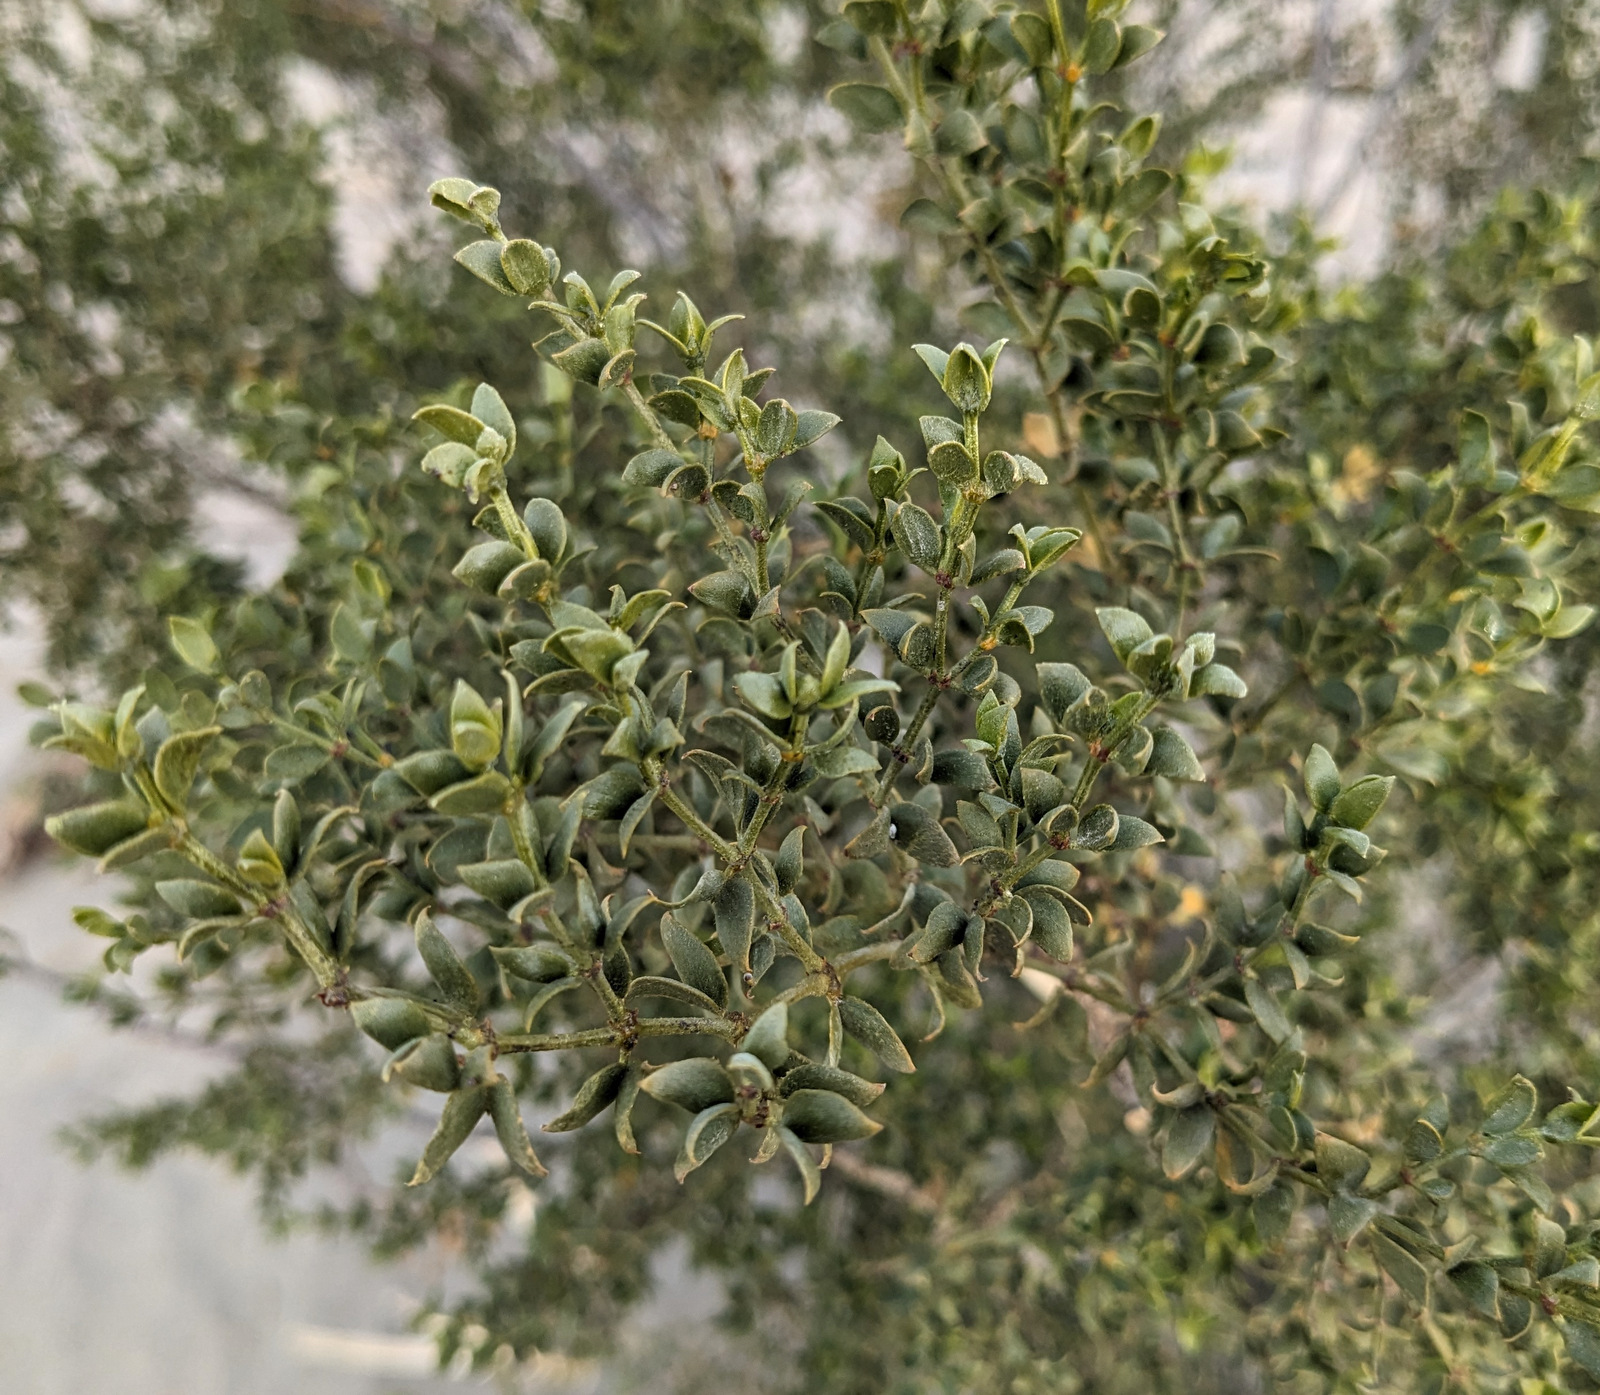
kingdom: Plantae
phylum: Tracheophyta
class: Magnoliopsida
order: Zygophyllales
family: Zygophyllaceae
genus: Larrea
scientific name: Larrea tridentata
